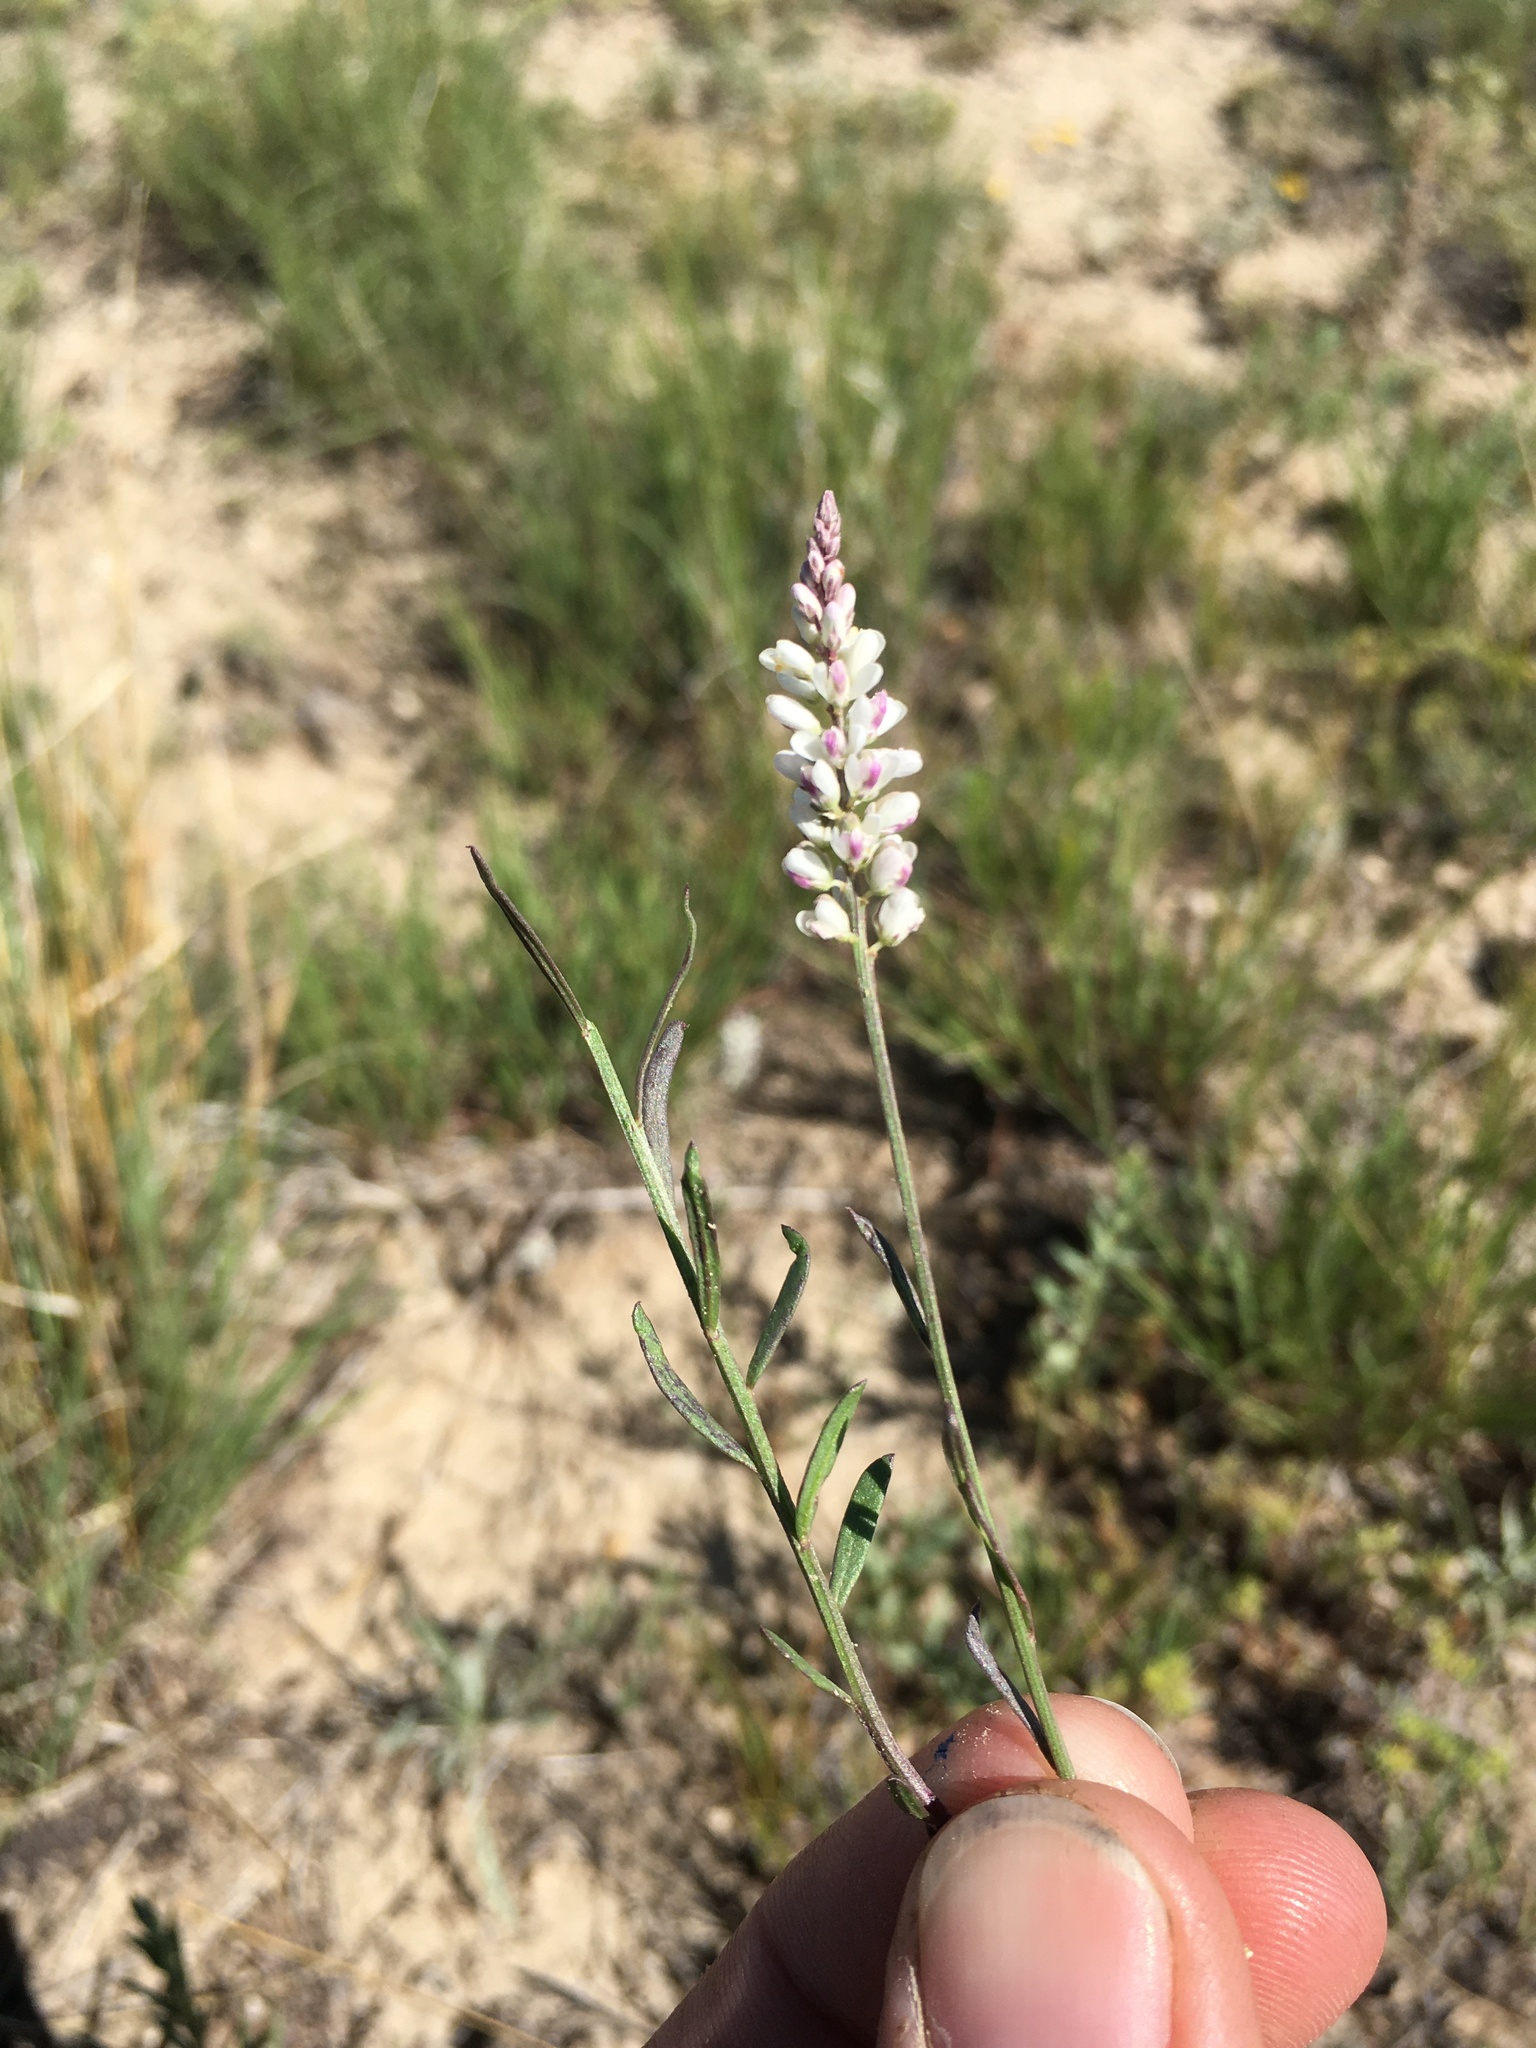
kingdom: Plantae
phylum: Tracheophyta
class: Magnoliopsida
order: Fabales
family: Polygalaceae
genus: Polygala
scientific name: Polygala alba
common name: White milkwort
